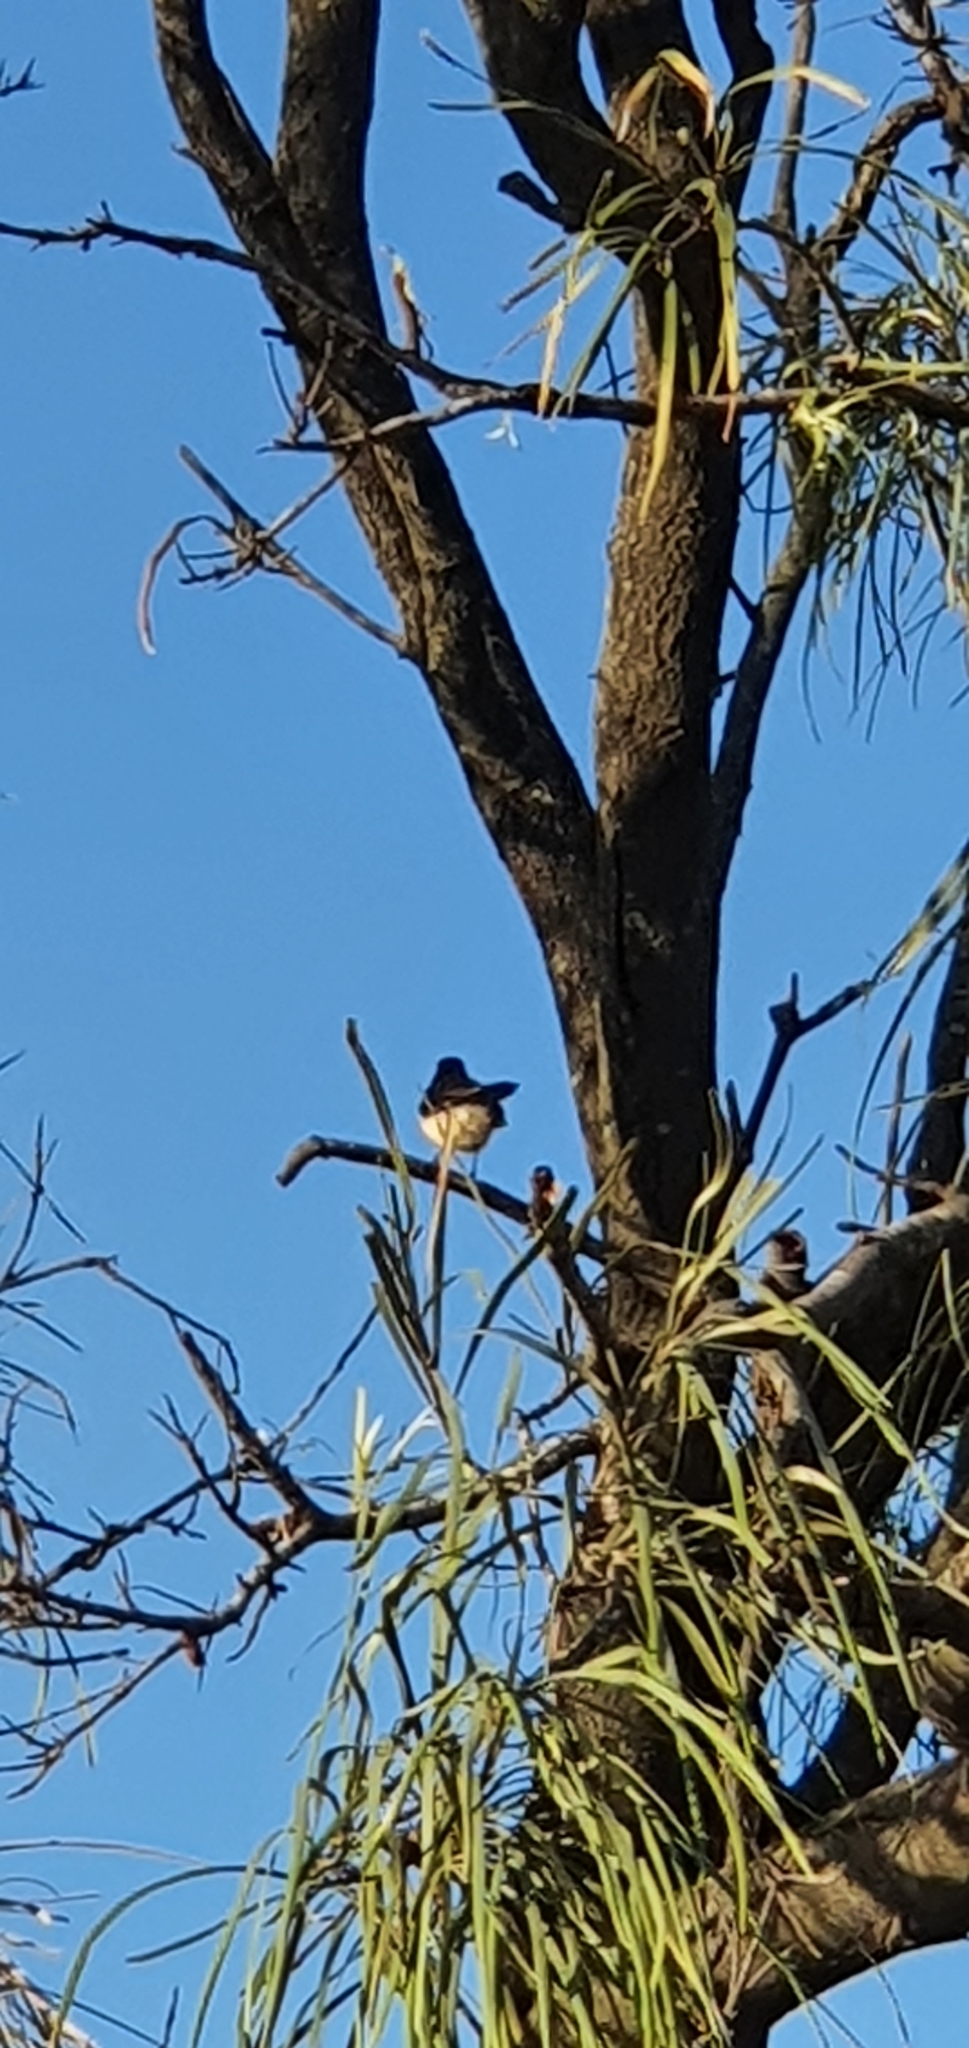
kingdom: Animalia
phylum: Chordata
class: Aves
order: Passeriformes
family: Rhipiduridae
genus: Rhipidura
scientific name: Rhipidura leucophrys
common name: Willie wagtail
